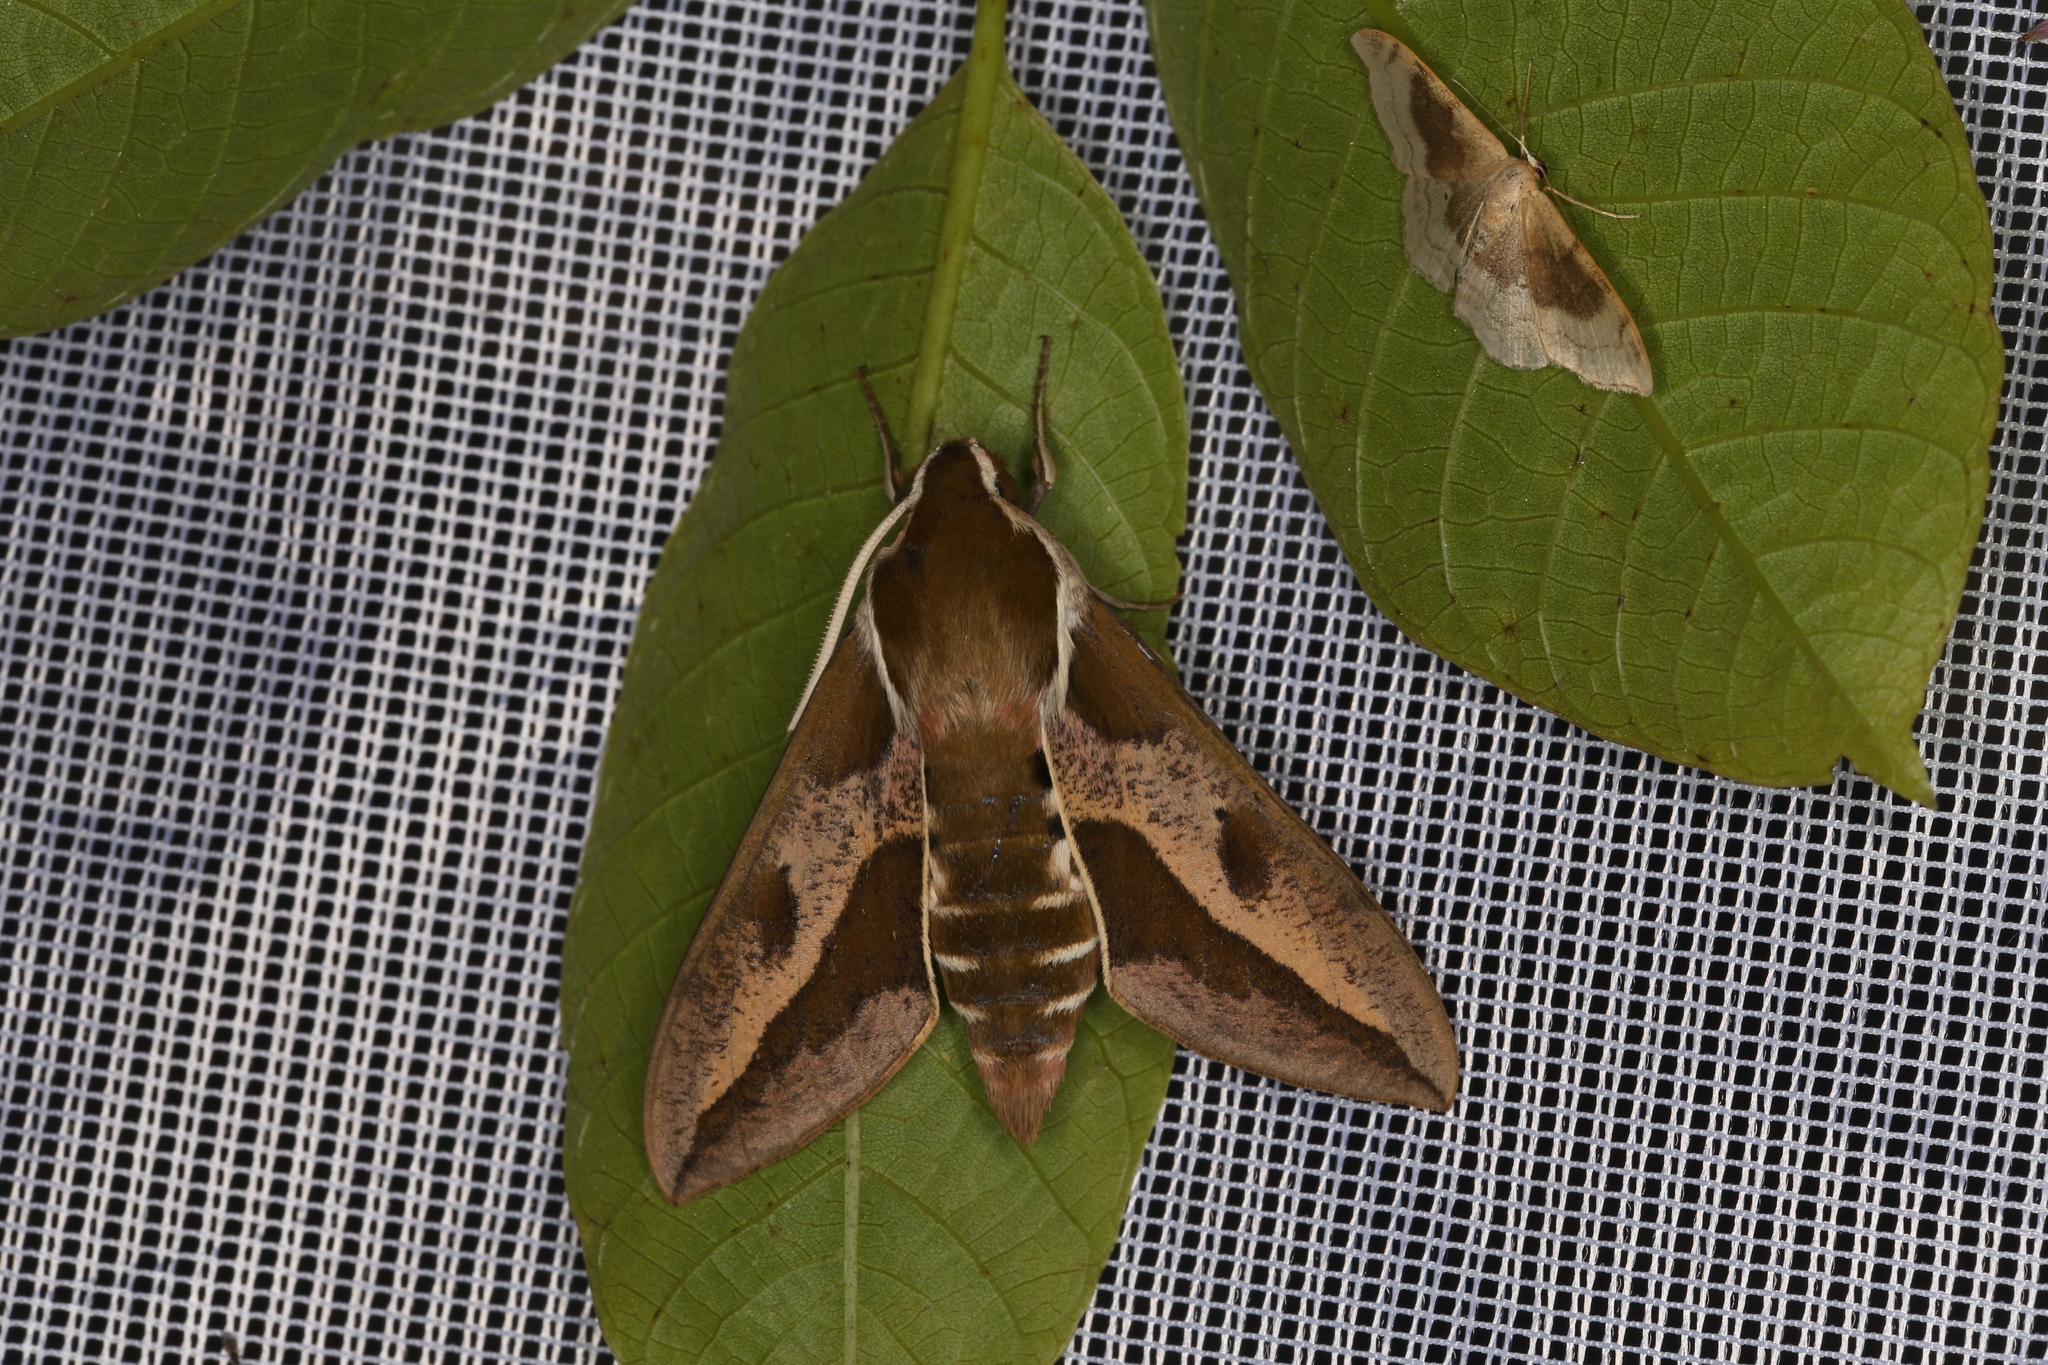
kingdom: Animalia
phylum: Arthropoda
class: Insecta
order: Lepidoptera
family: Sphingidae
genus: Hyles
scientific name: Hyles euphorbiae
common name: Spurge hawk-moth
